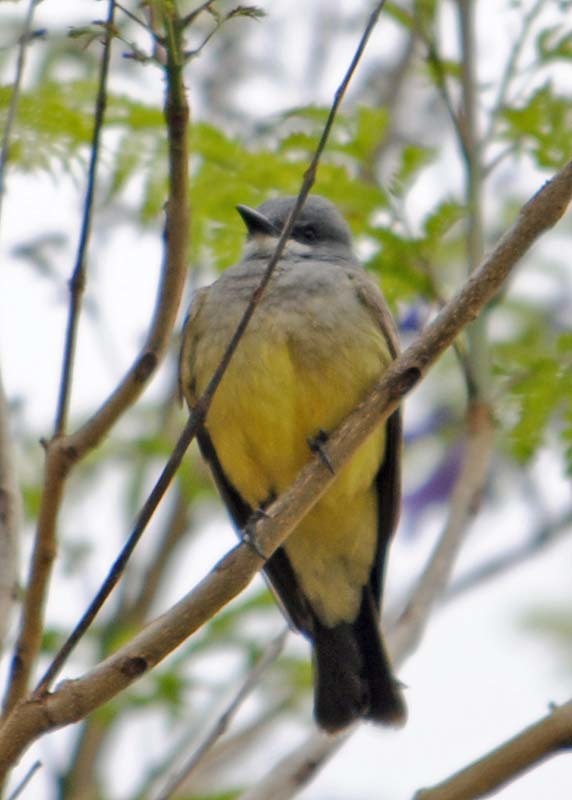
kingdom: Animalia
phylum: Chordata
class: Aves
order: Passeriformes
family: Tyrannidae
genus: Tyrannus
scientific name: Tyrannus vociferans
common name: Cassin's kingbird
